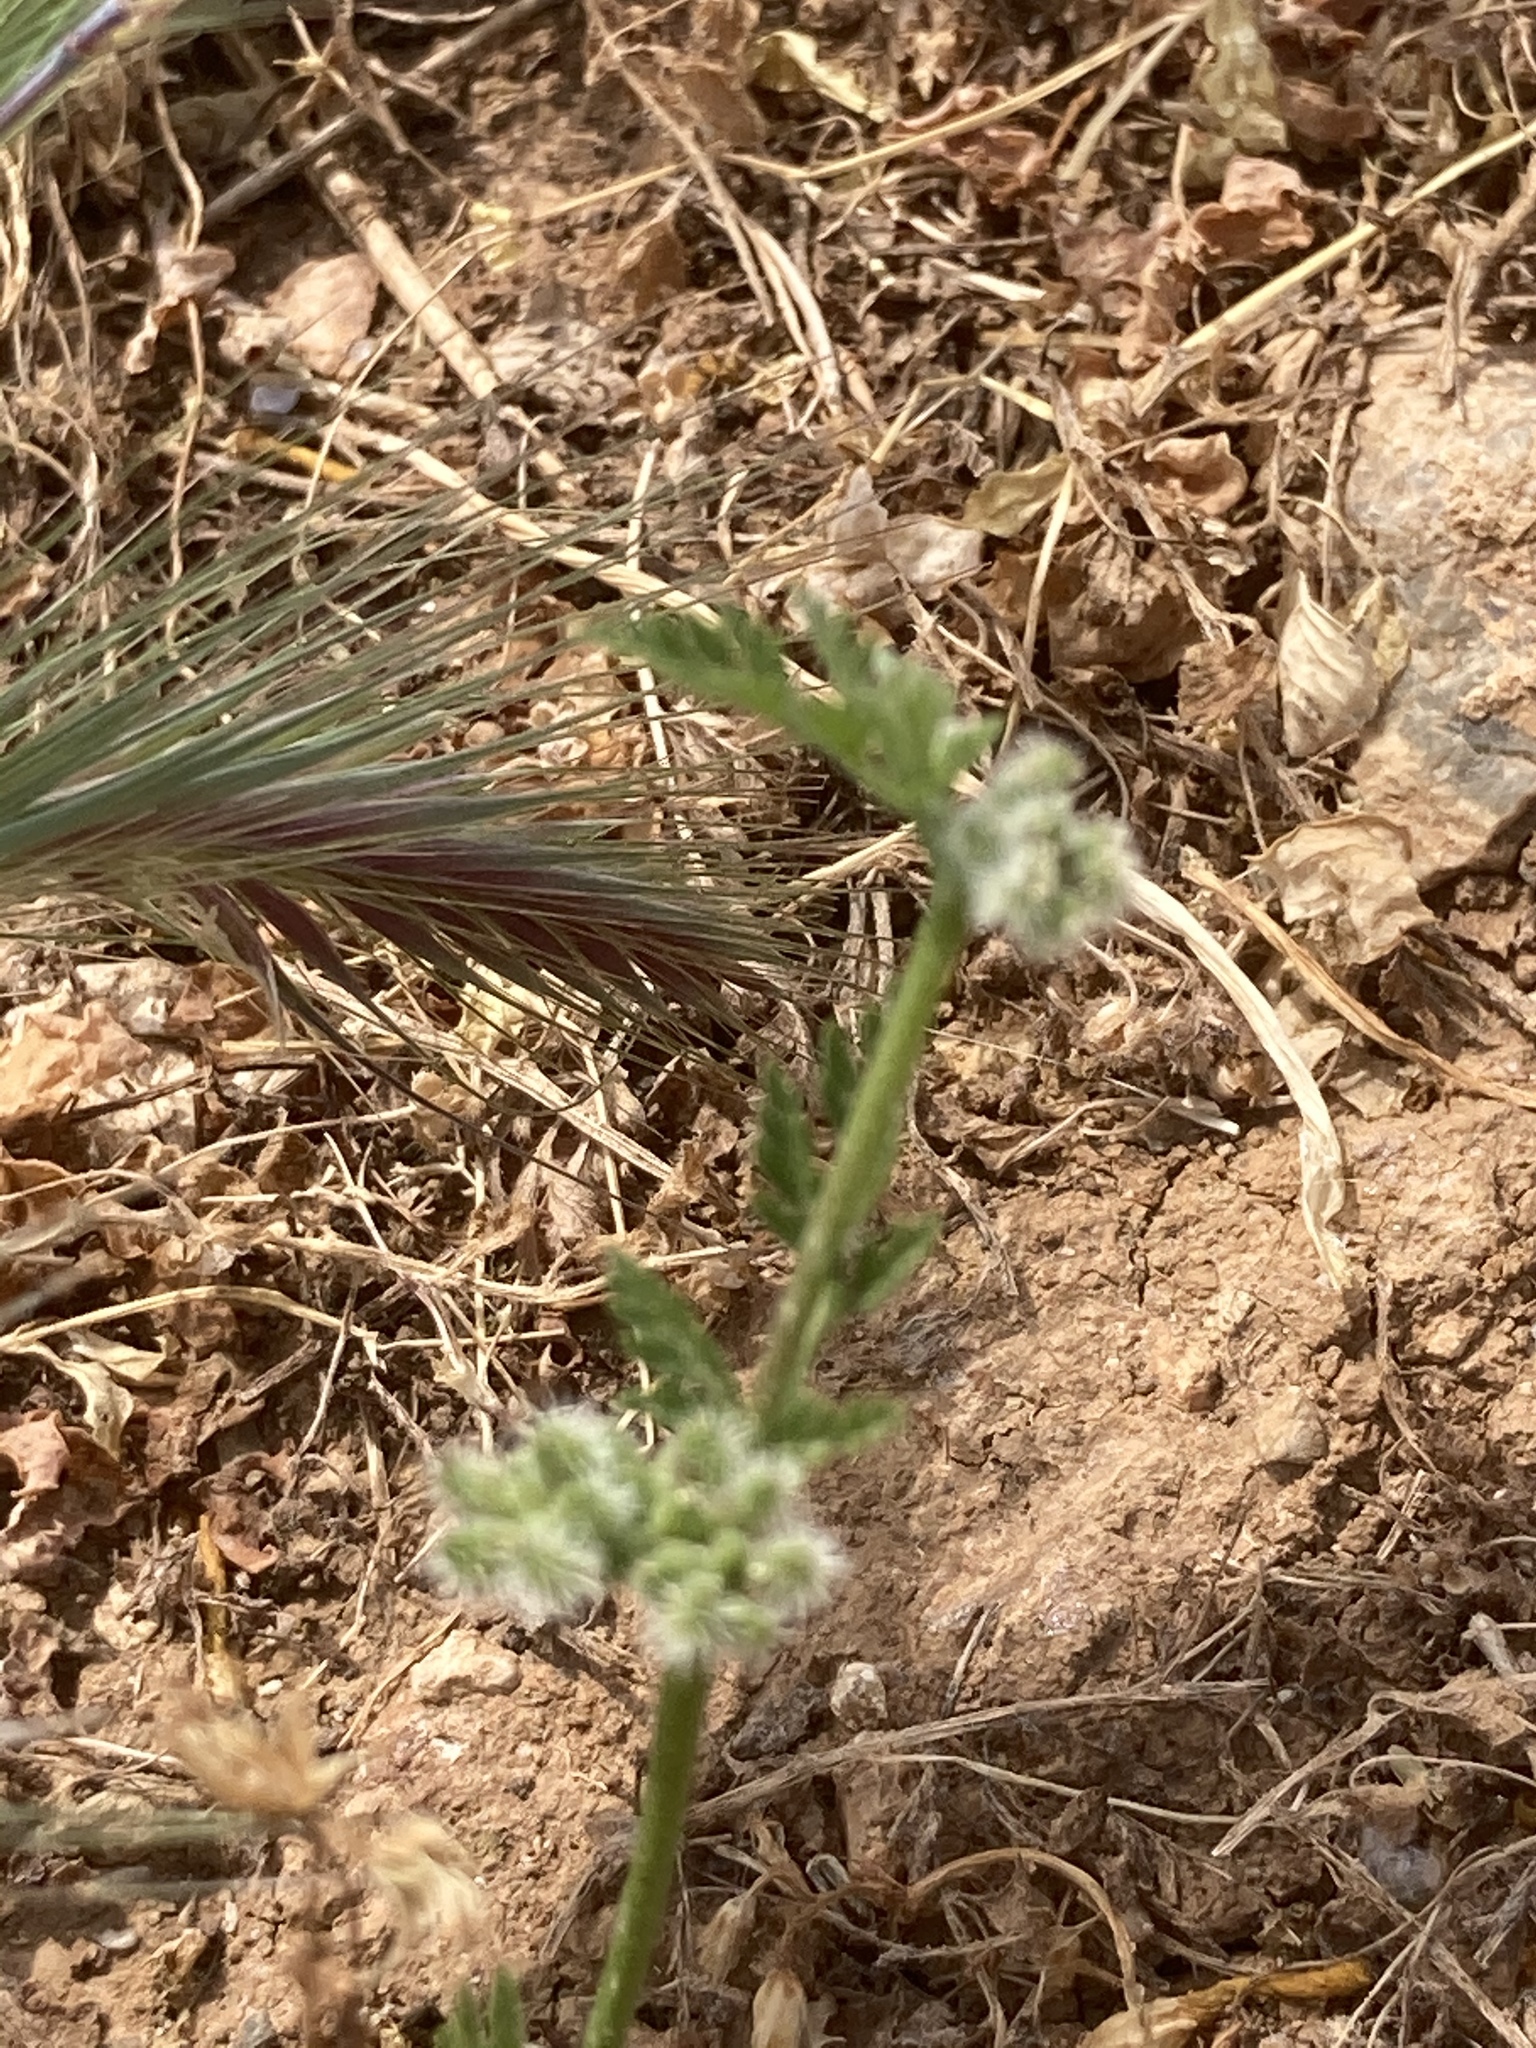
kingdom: Plantae
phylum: Tracheophyta
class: Magnoliopsida
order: Apiales
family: Apiaceae
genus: Torilis
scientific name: Torilis nodosa
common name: Knotted hedge-parsley
